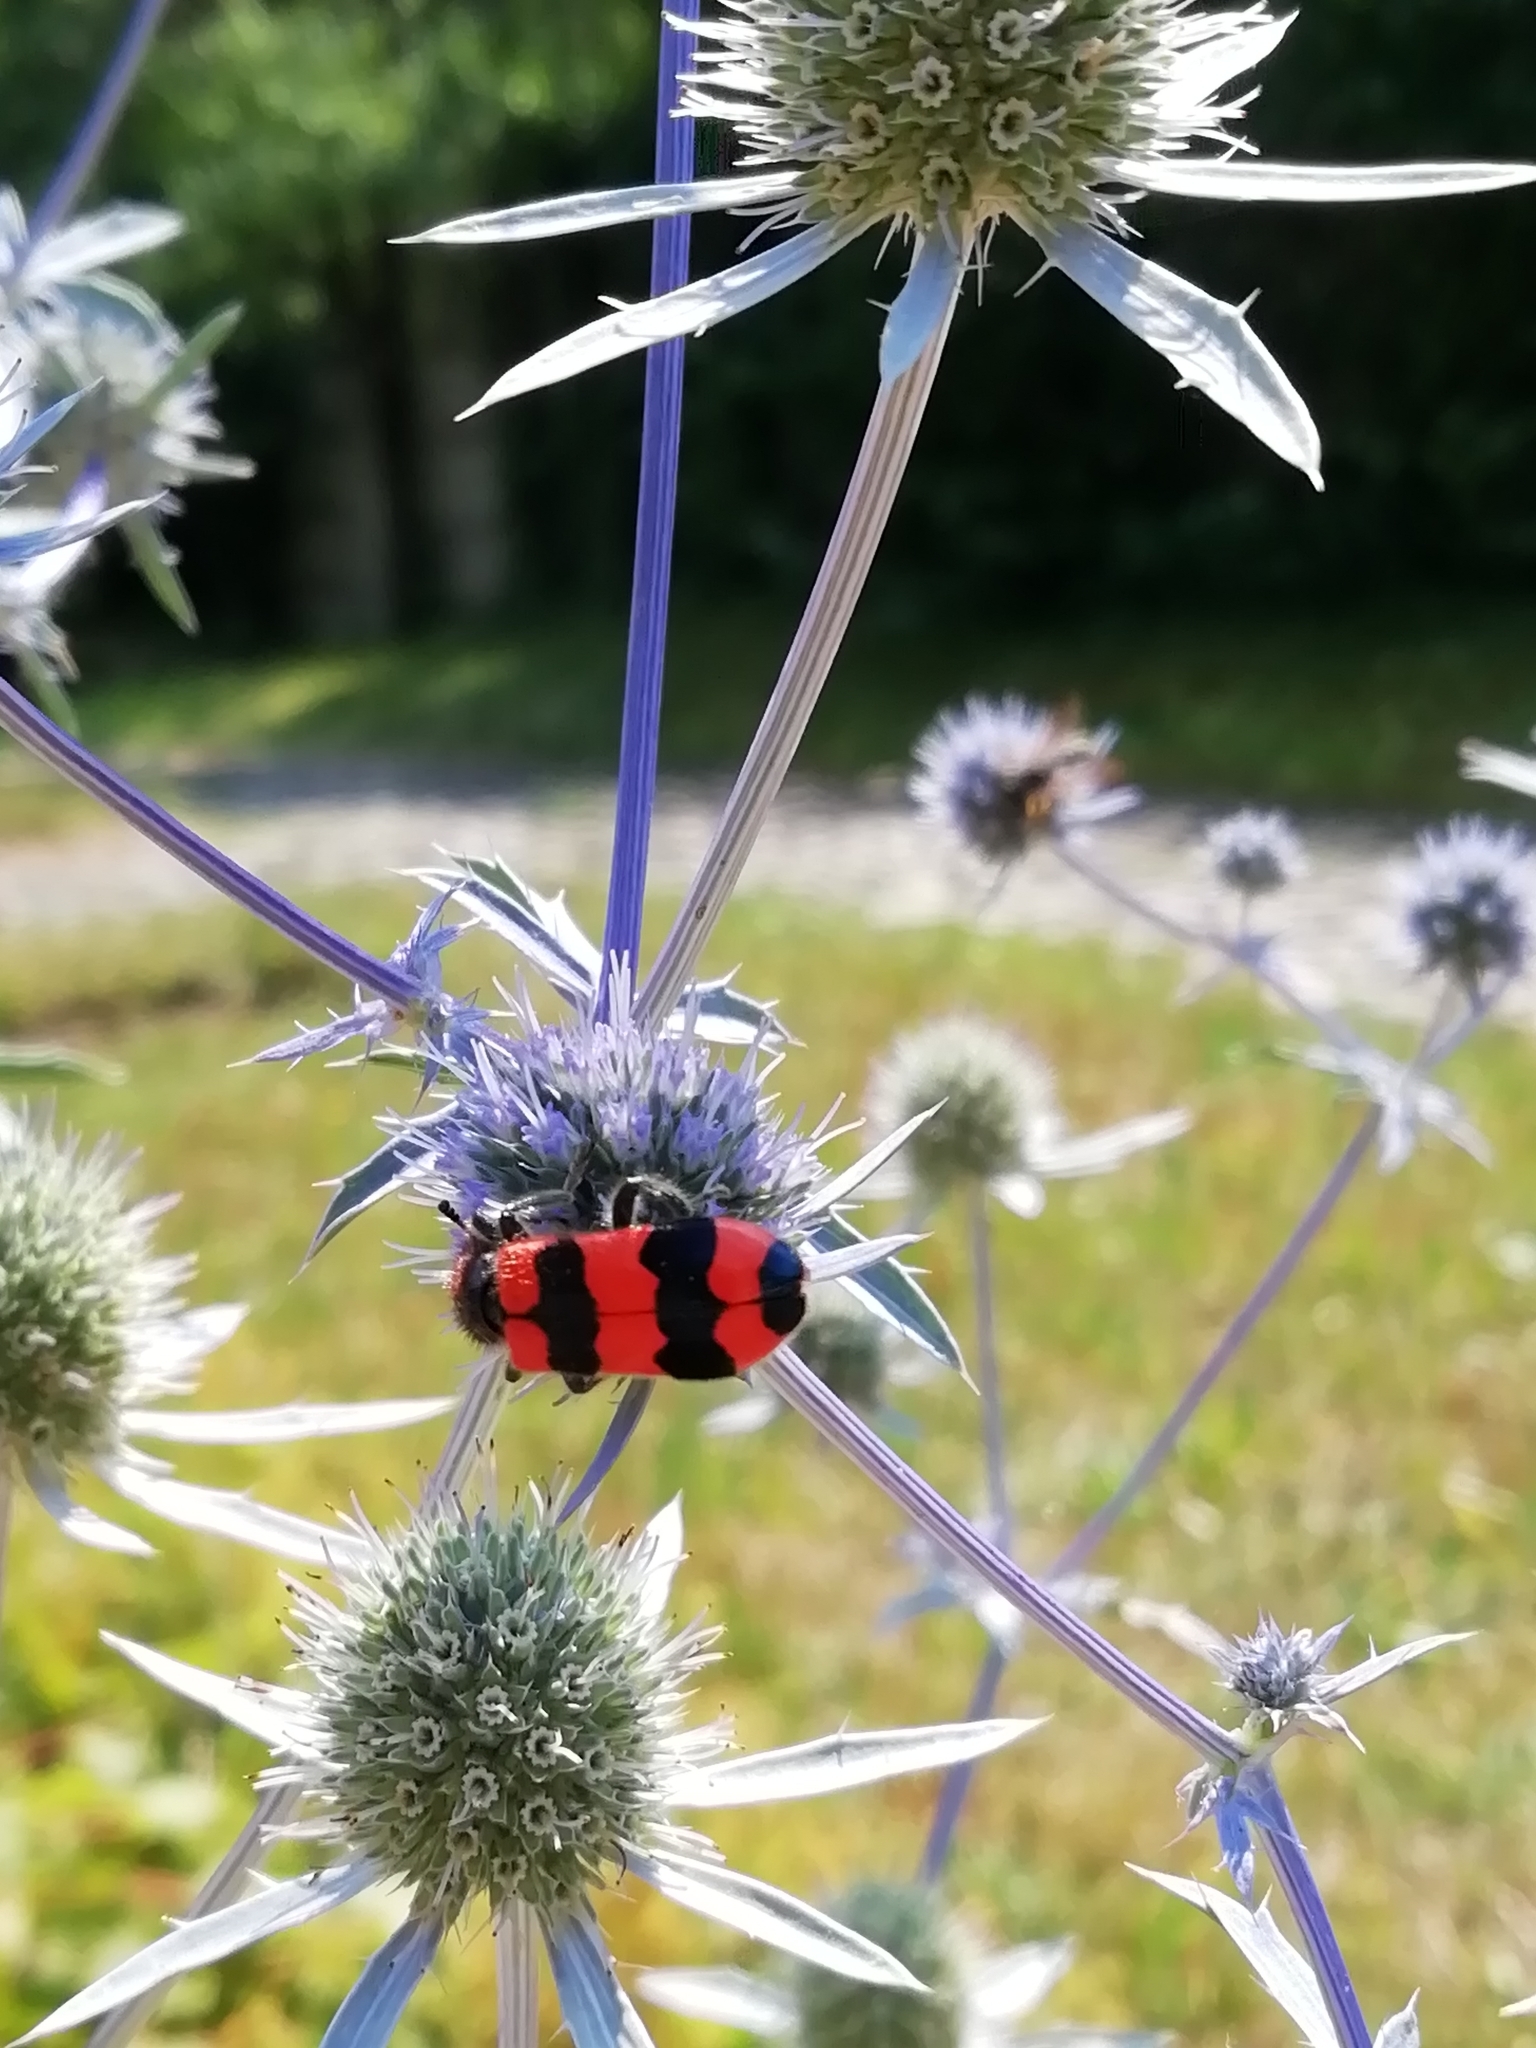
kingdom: Animalia
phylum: Arthropoda
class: Insecta
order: Coleoptera
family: Cleridae
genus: Trichodes
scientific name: Trichodes apiarius
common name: Bee-eating beetle
